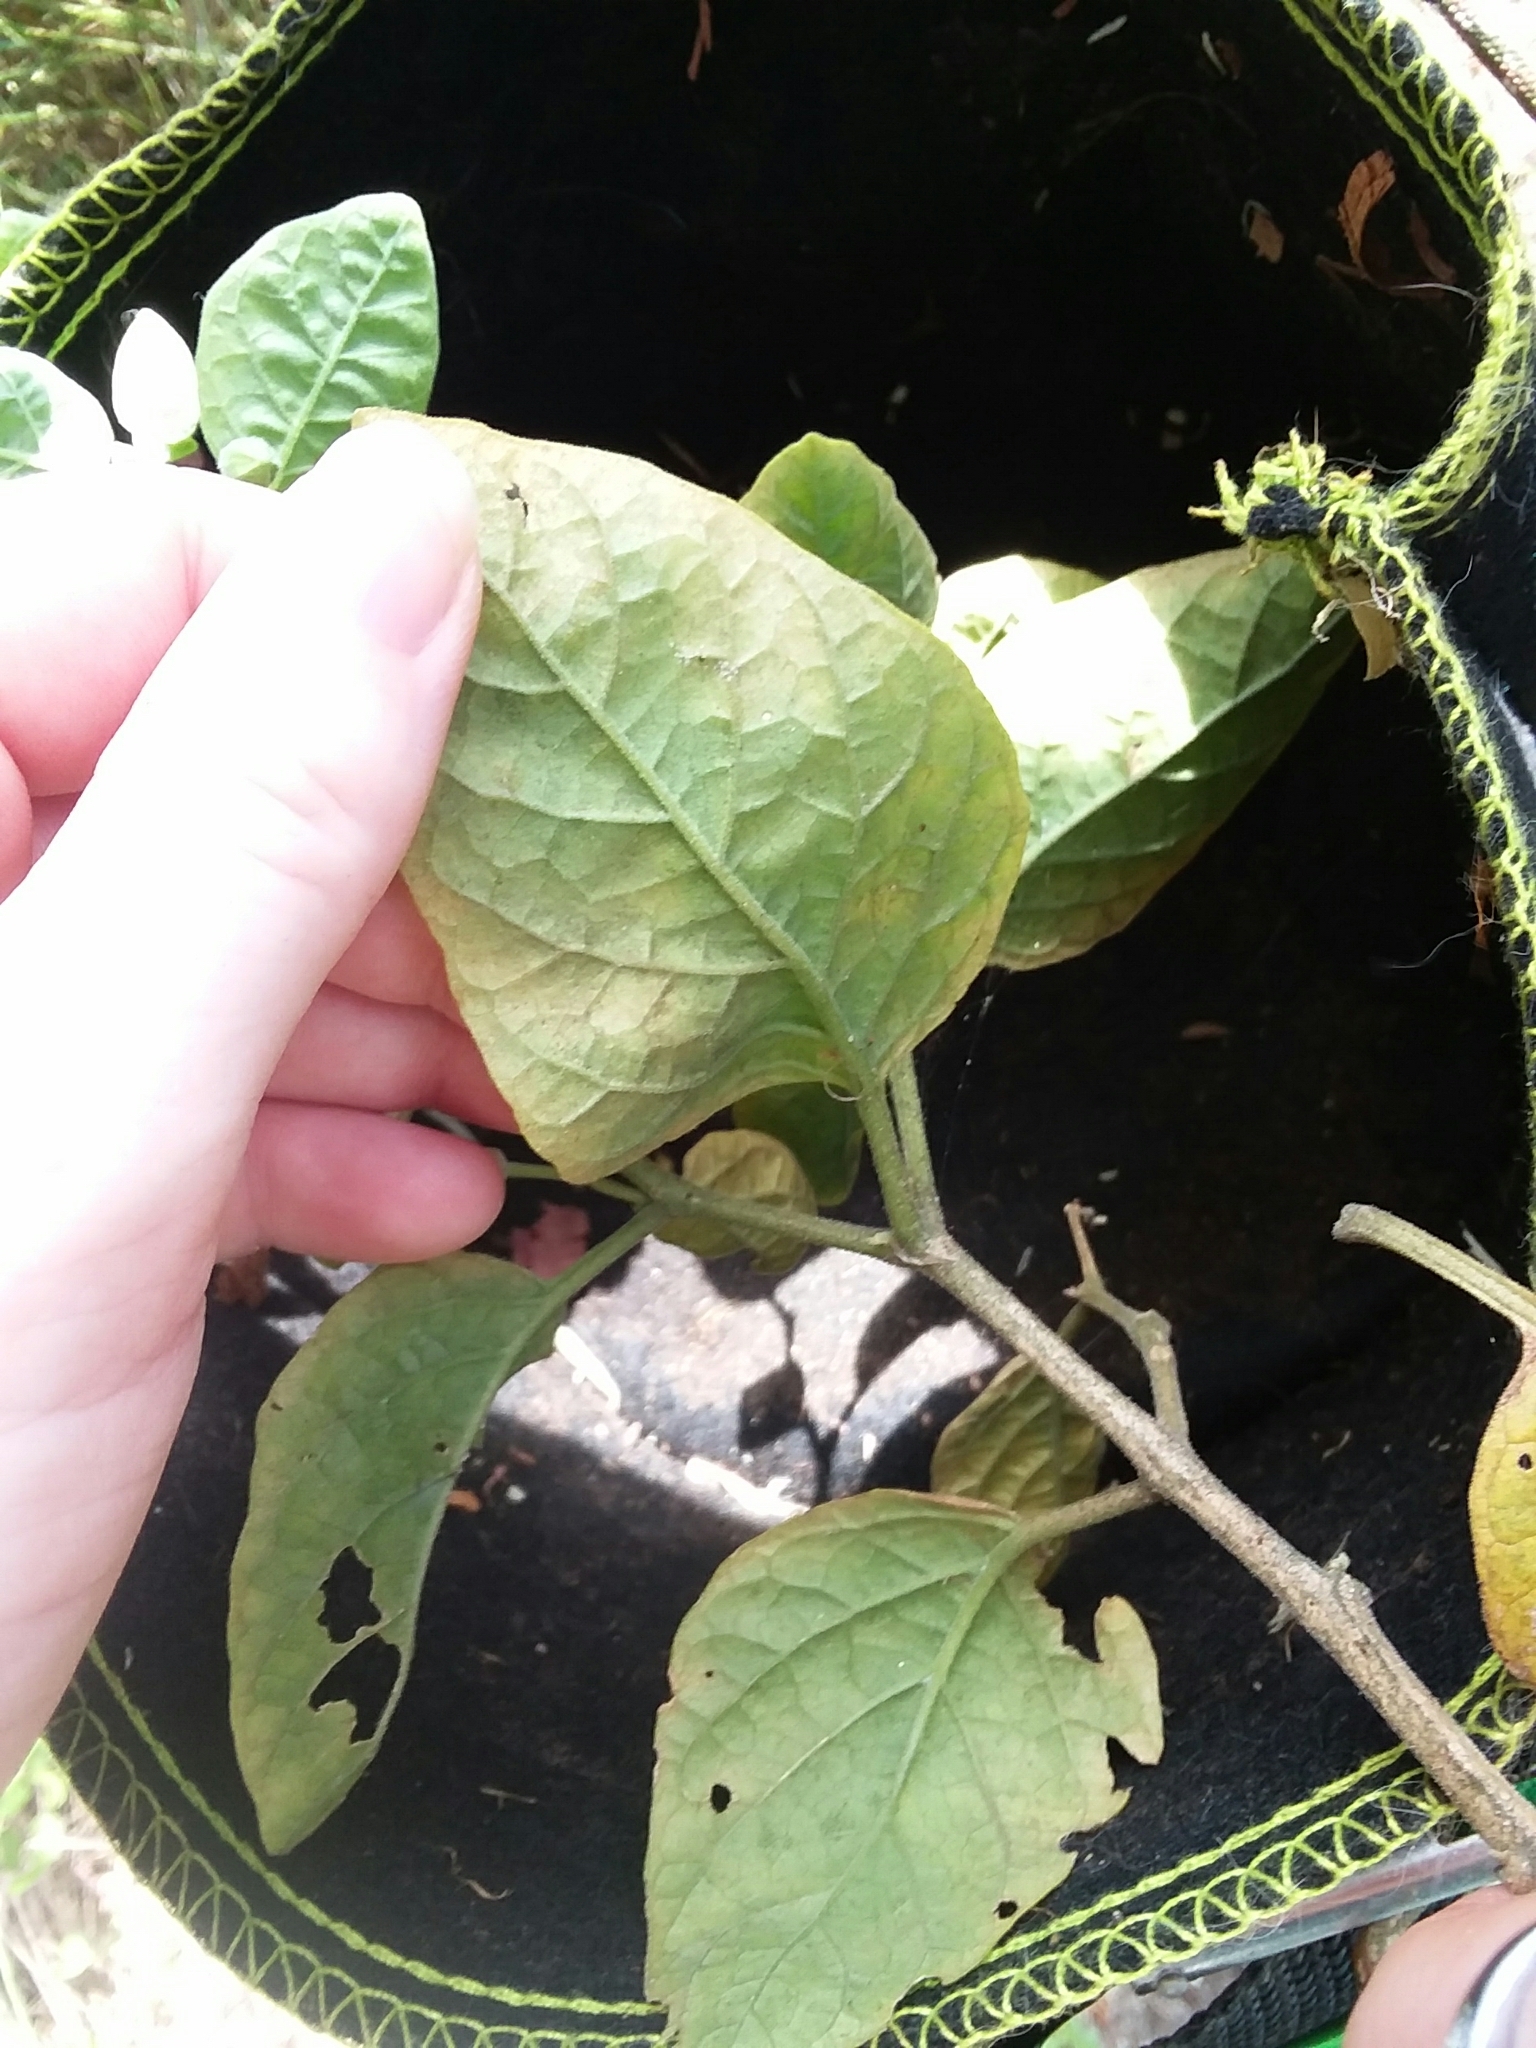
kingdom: Plantae
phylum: Tracheophyta
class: Magnoliopsida
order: Solanales
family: Solanaceae
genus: Physalis
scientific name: Physalis walteri
